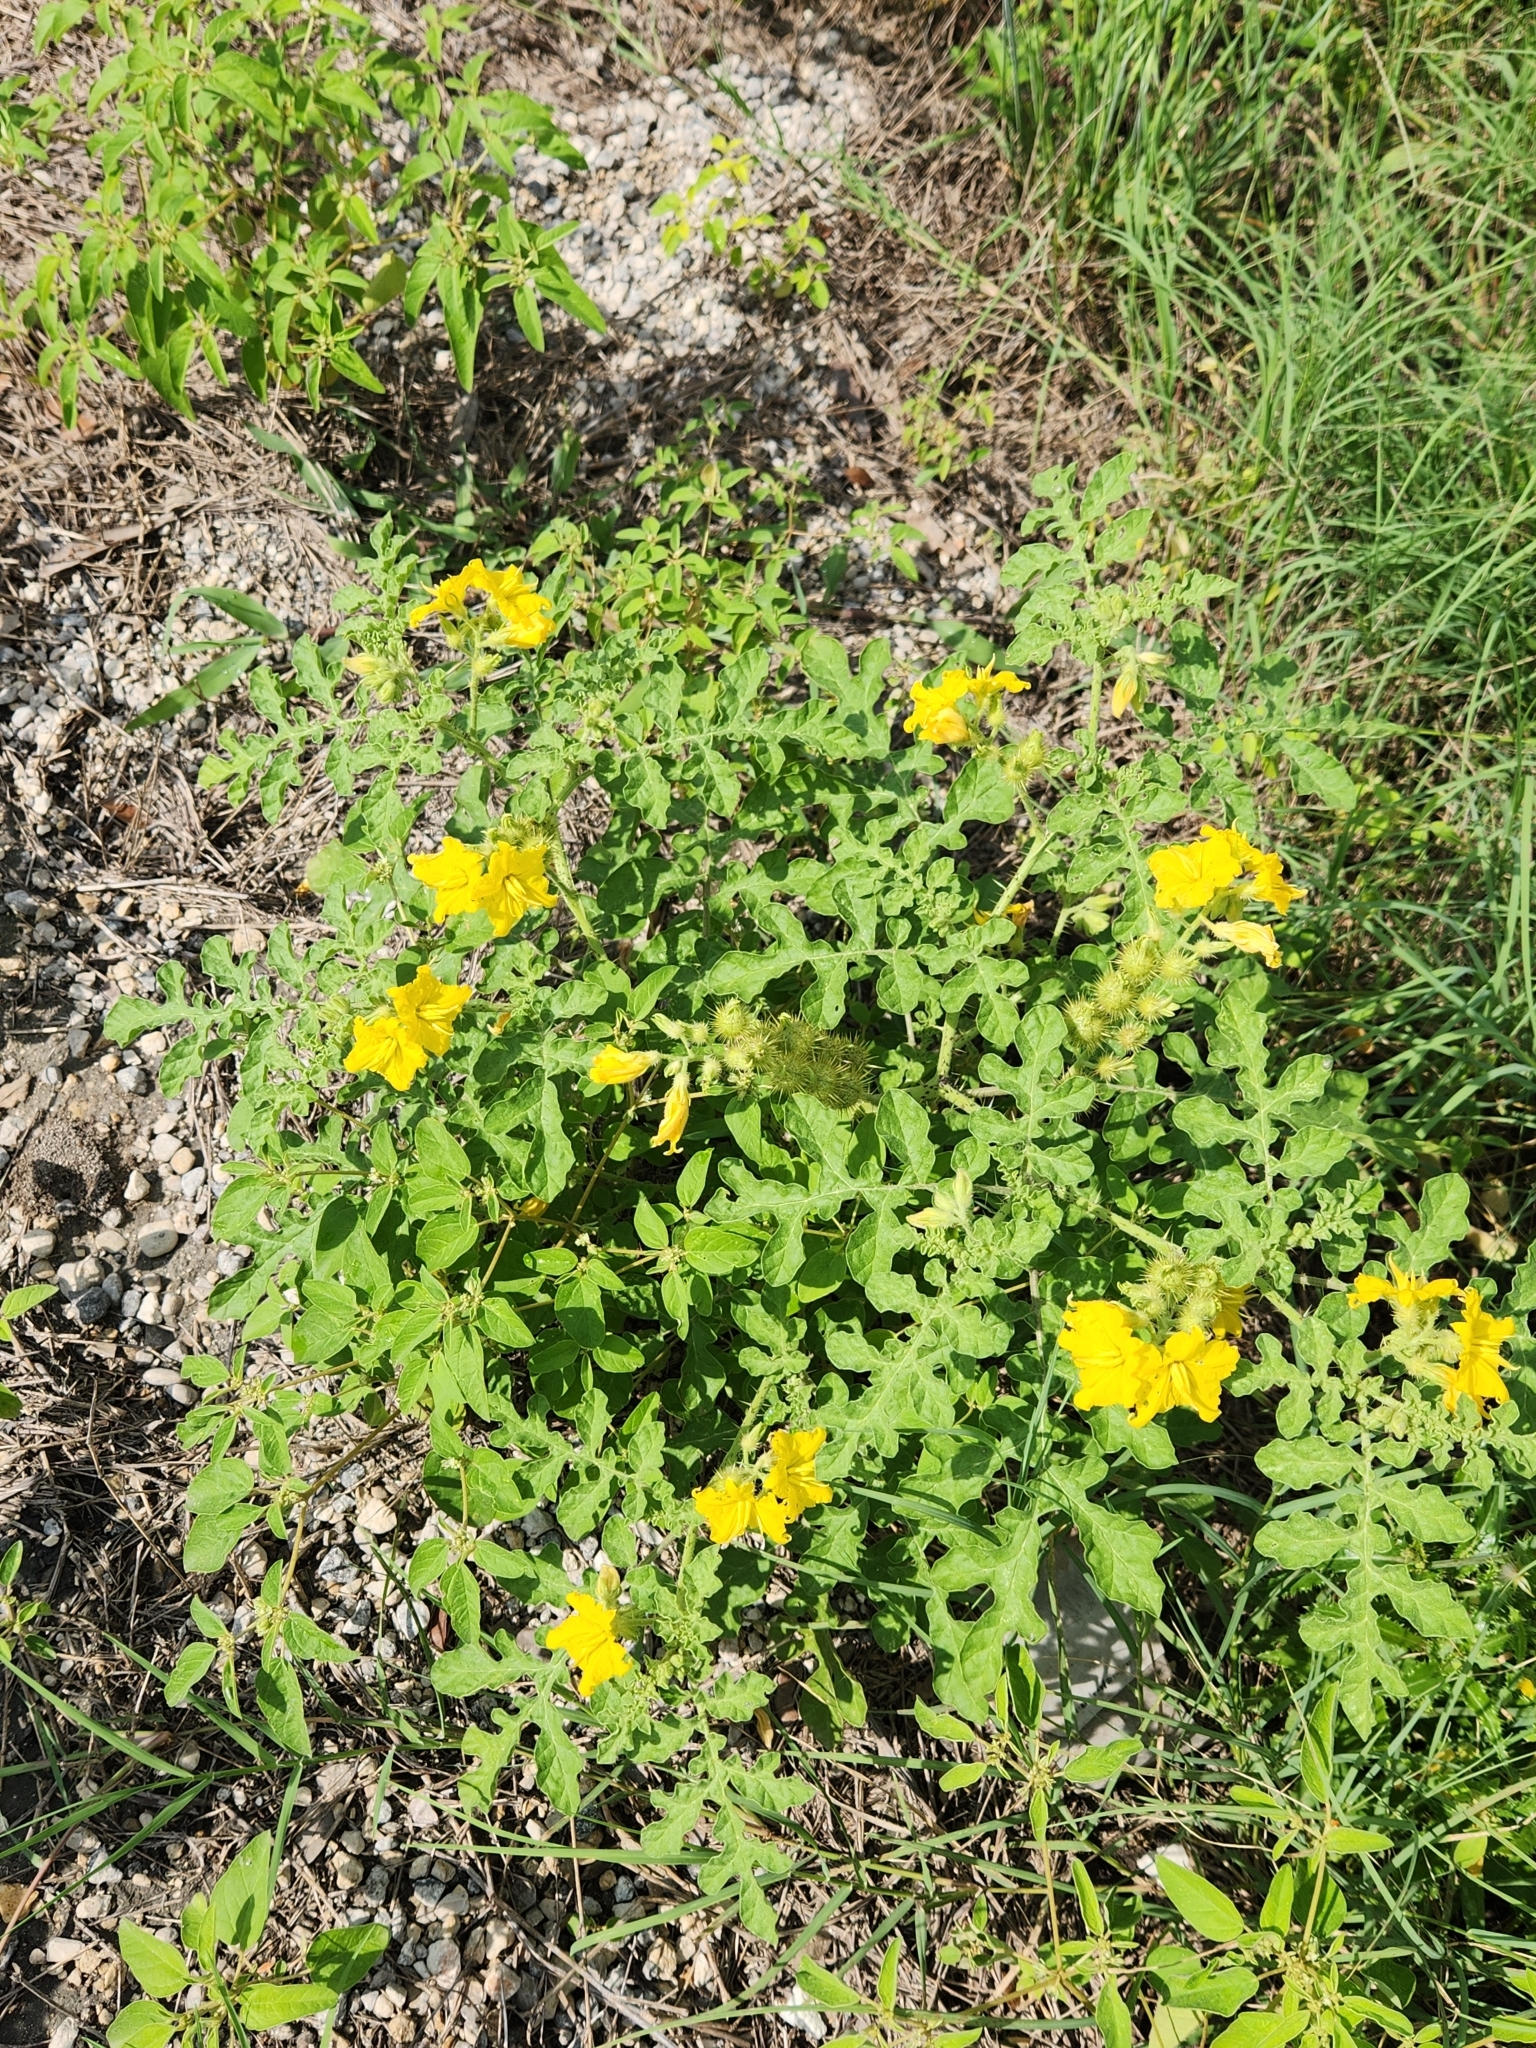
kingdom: Plantae
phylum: Tracheophyta
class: Magnoliopsida
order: Solanales
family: Solanaceae
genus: Solanum
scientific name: Solanum angustifolium
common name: Buffalobur nightshade
